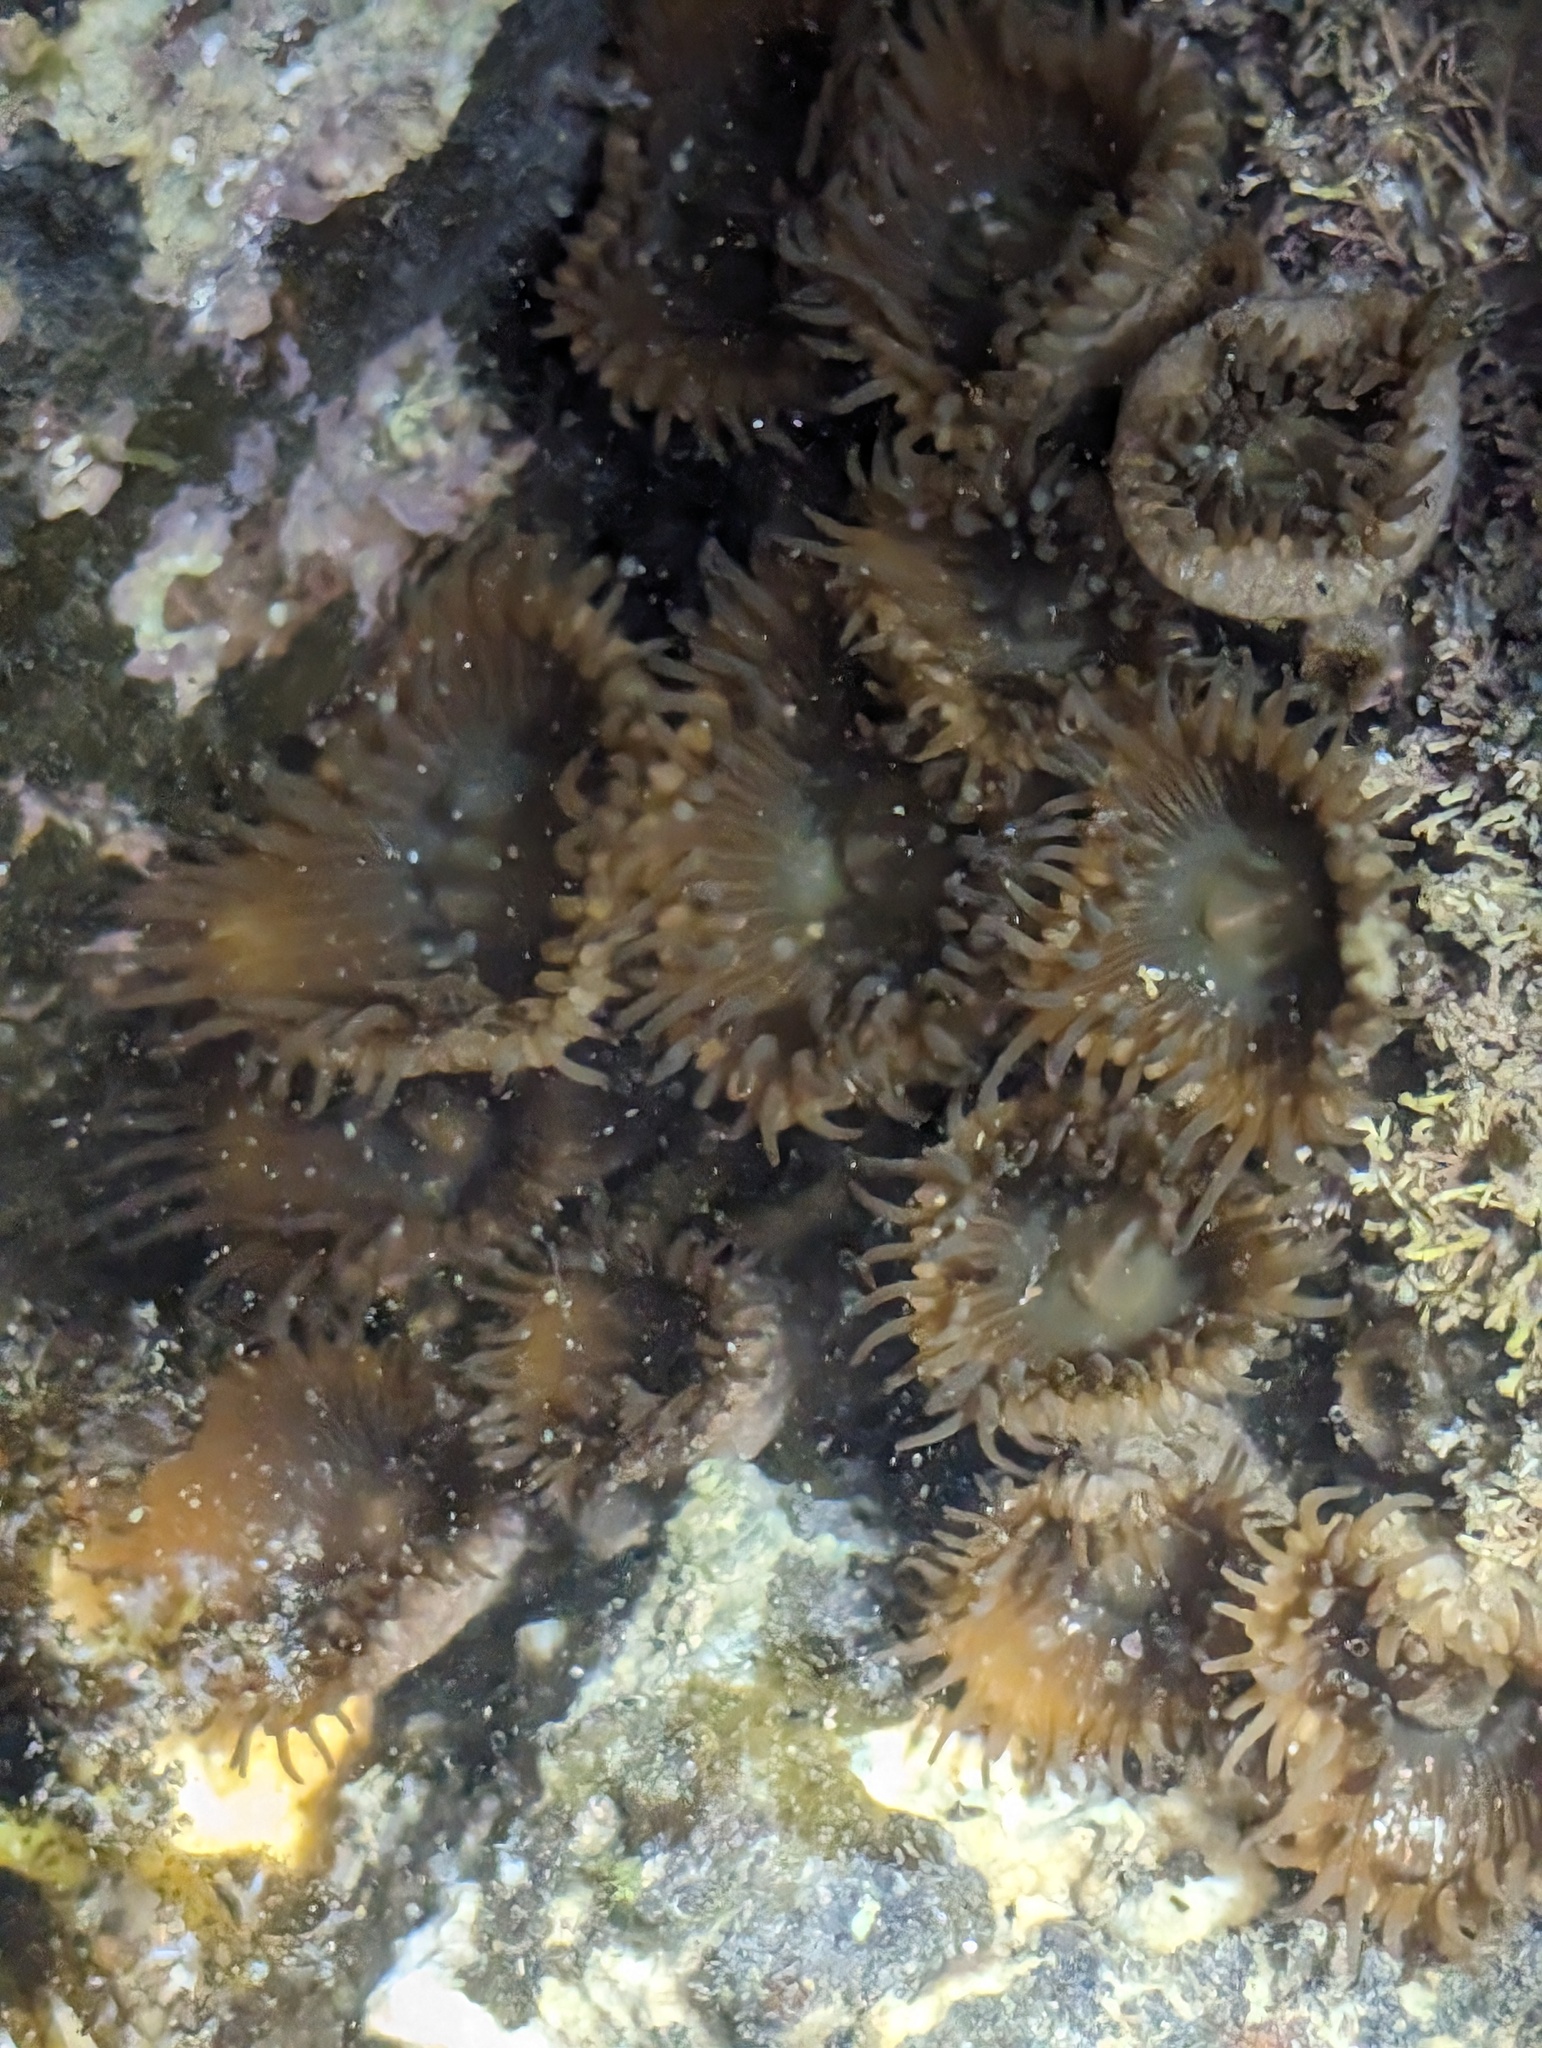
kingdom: Animalia
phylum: Cnidaria
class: Anthozoa
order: Zoantharia
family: Sphenopidae
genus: Palythoa
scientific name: Palythoa mutuki
